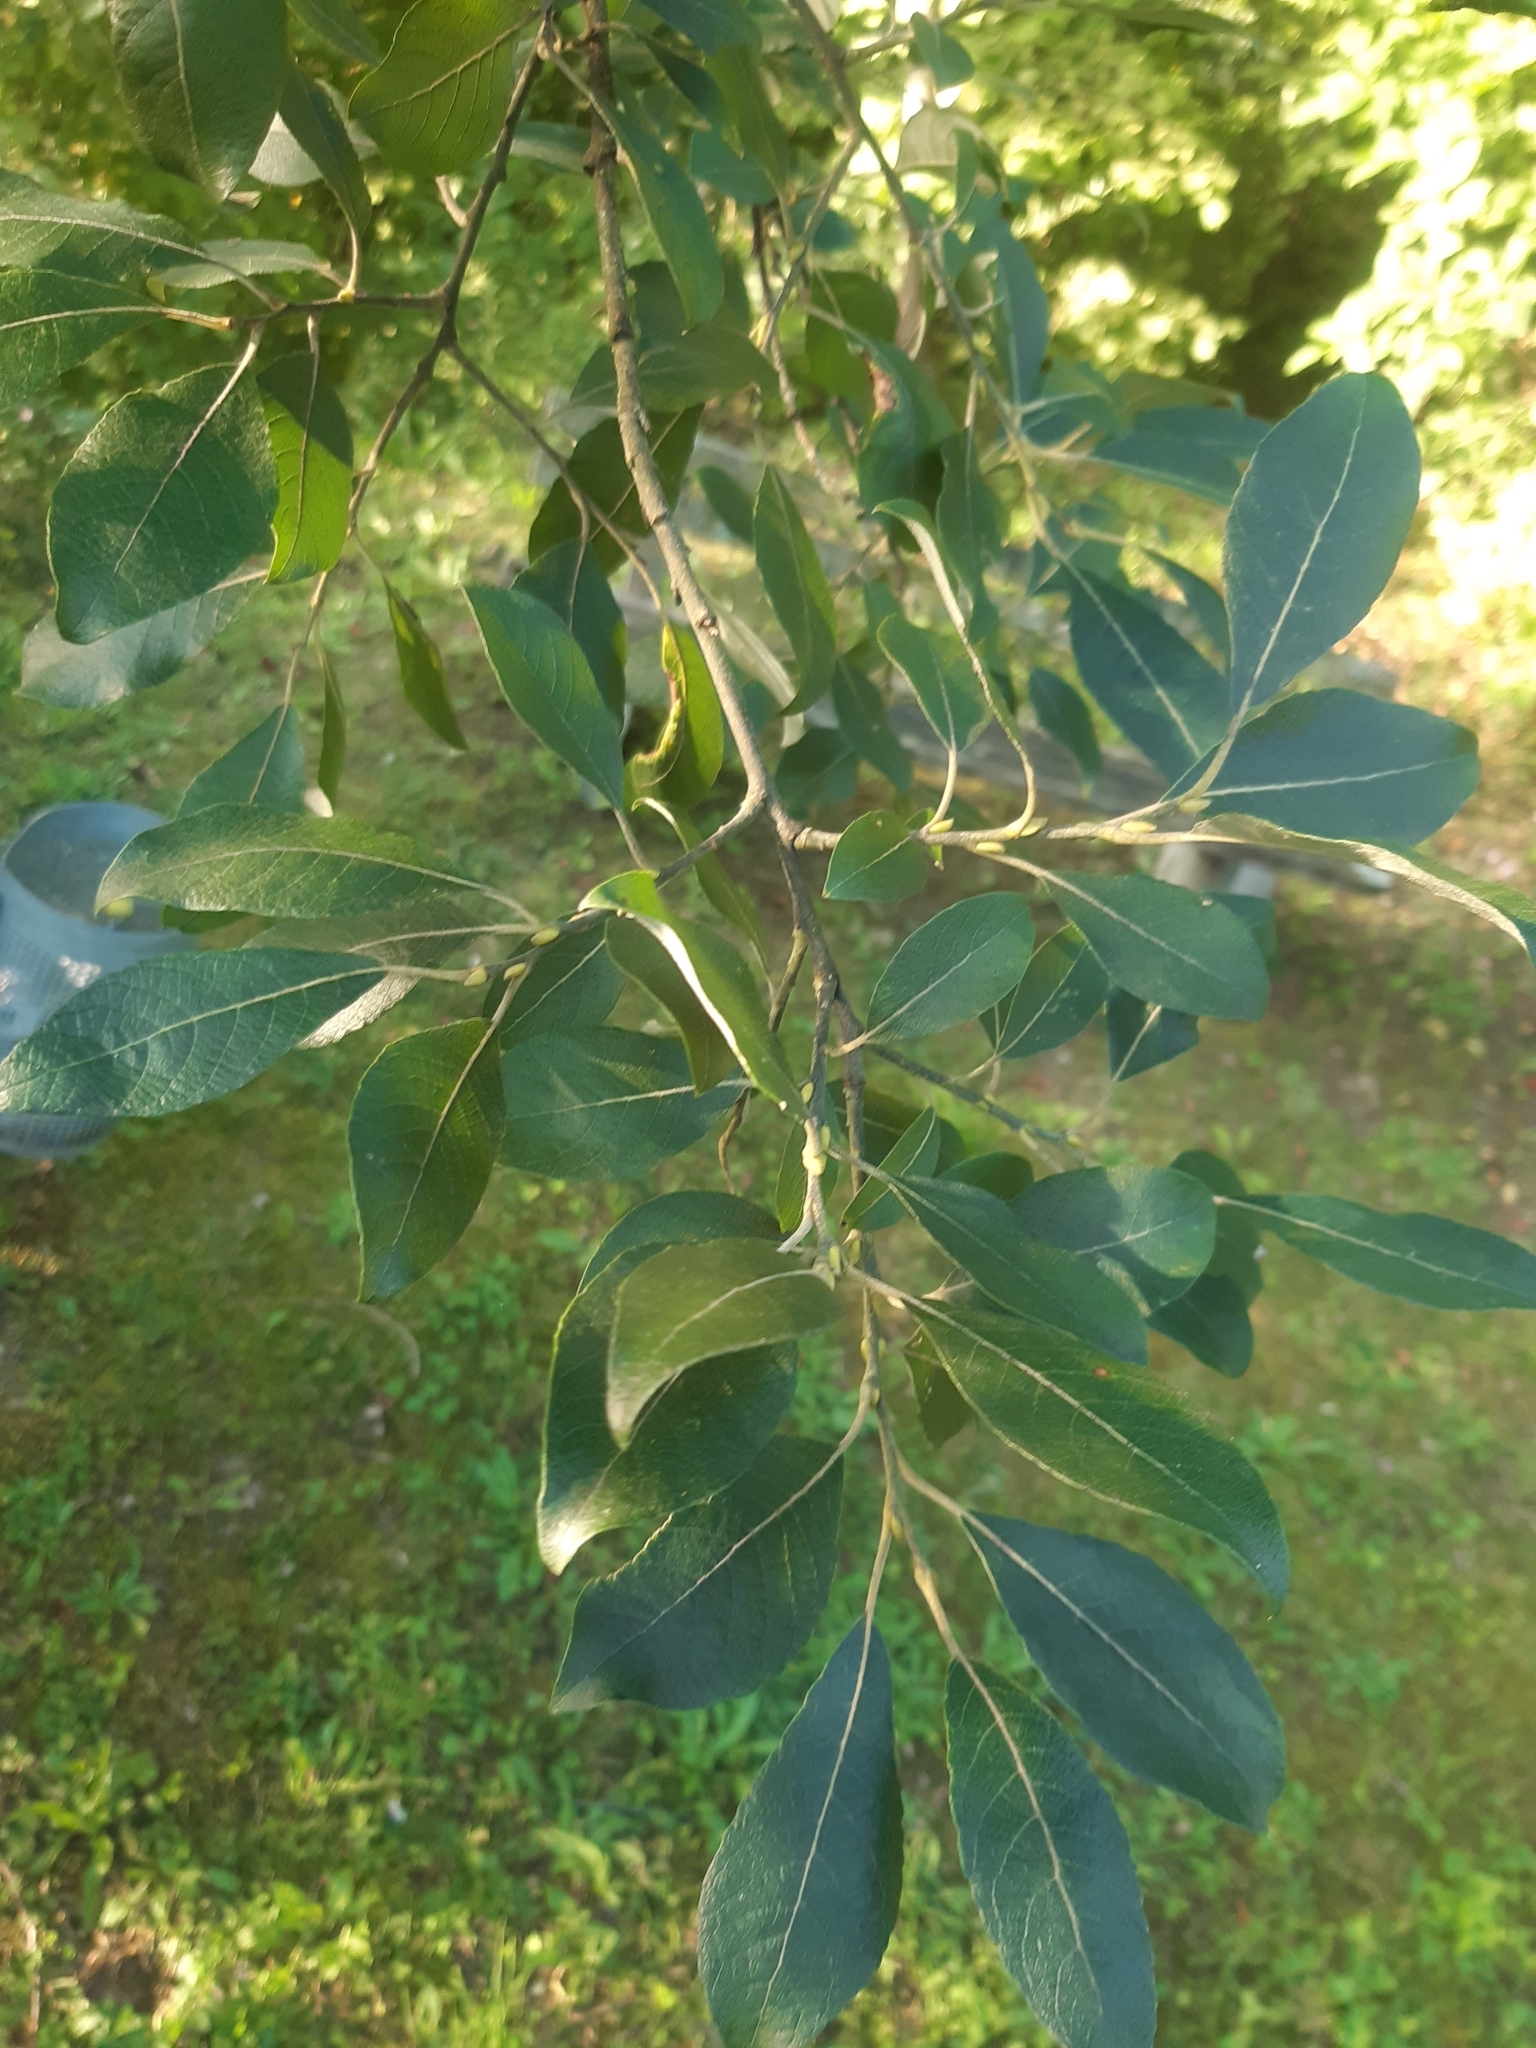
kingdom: Plantae
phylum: Tracheophyta
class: Magnoliopsida
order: Malpighiales
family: Salicaceae
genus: Salix
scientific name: Salix caprea
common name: Goat willow
